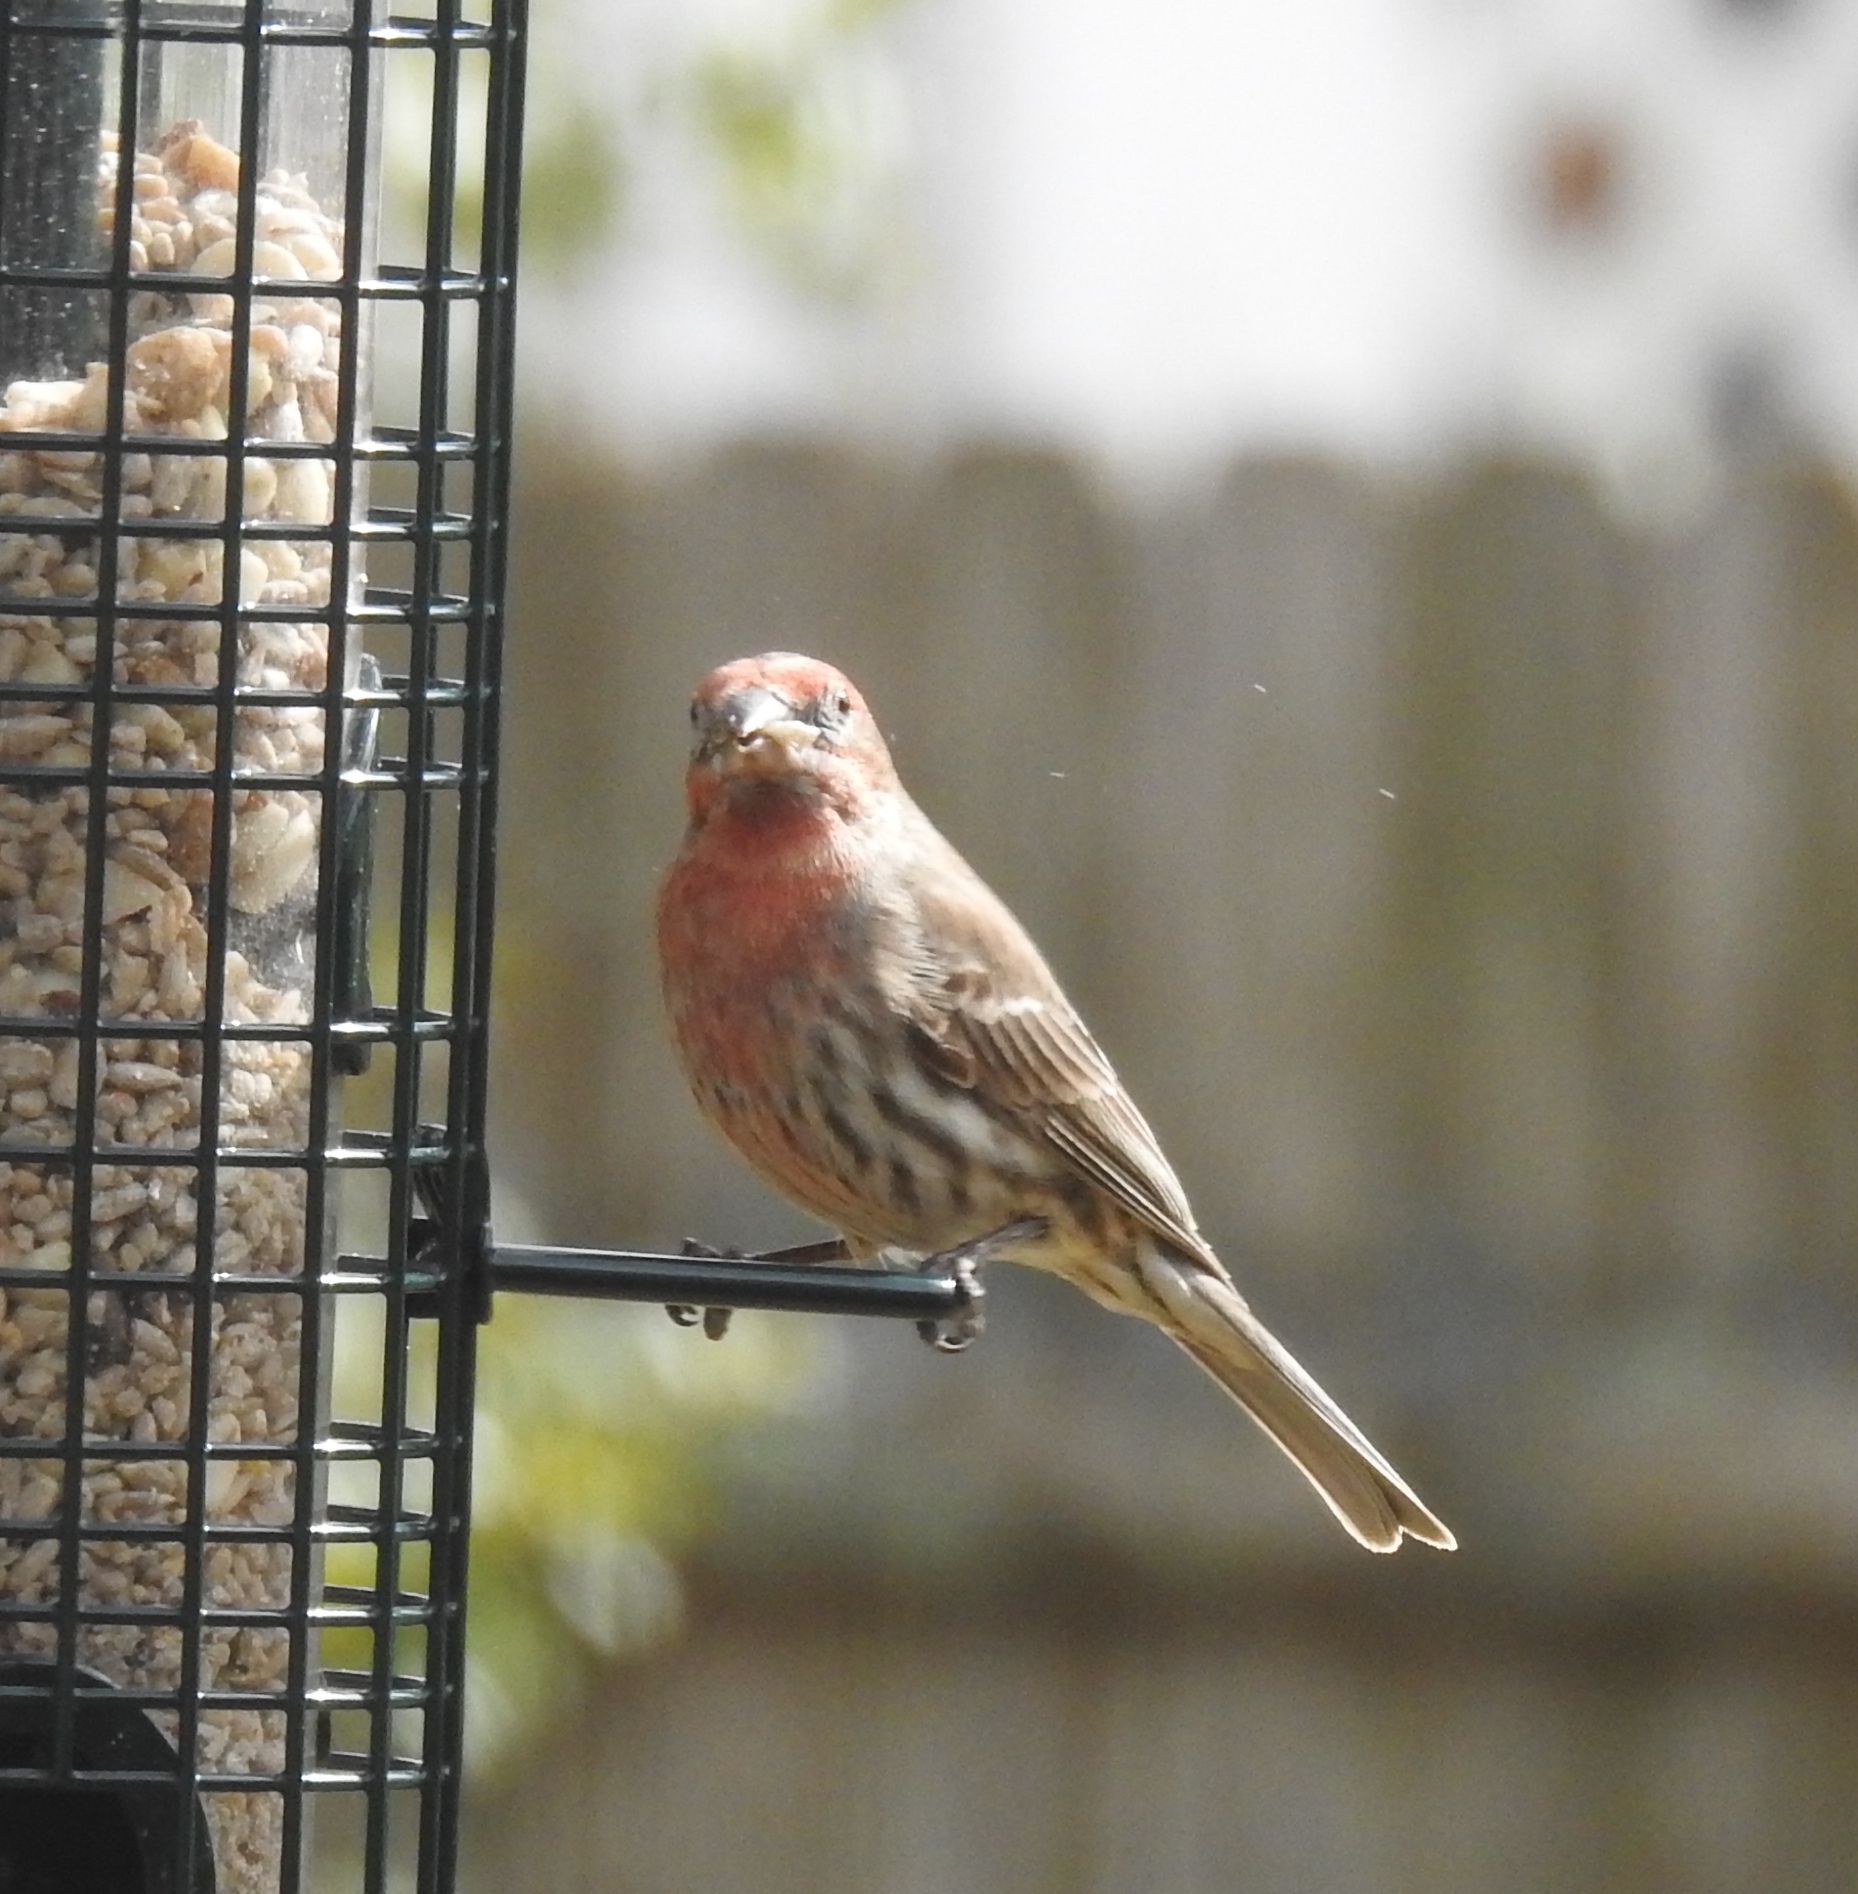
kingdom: Animalia
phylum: Chordata
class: Aves
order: Passeriformes
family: Fringillidae
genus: Haemorhous
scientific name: Haemorhous mexicanus
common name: House finch
